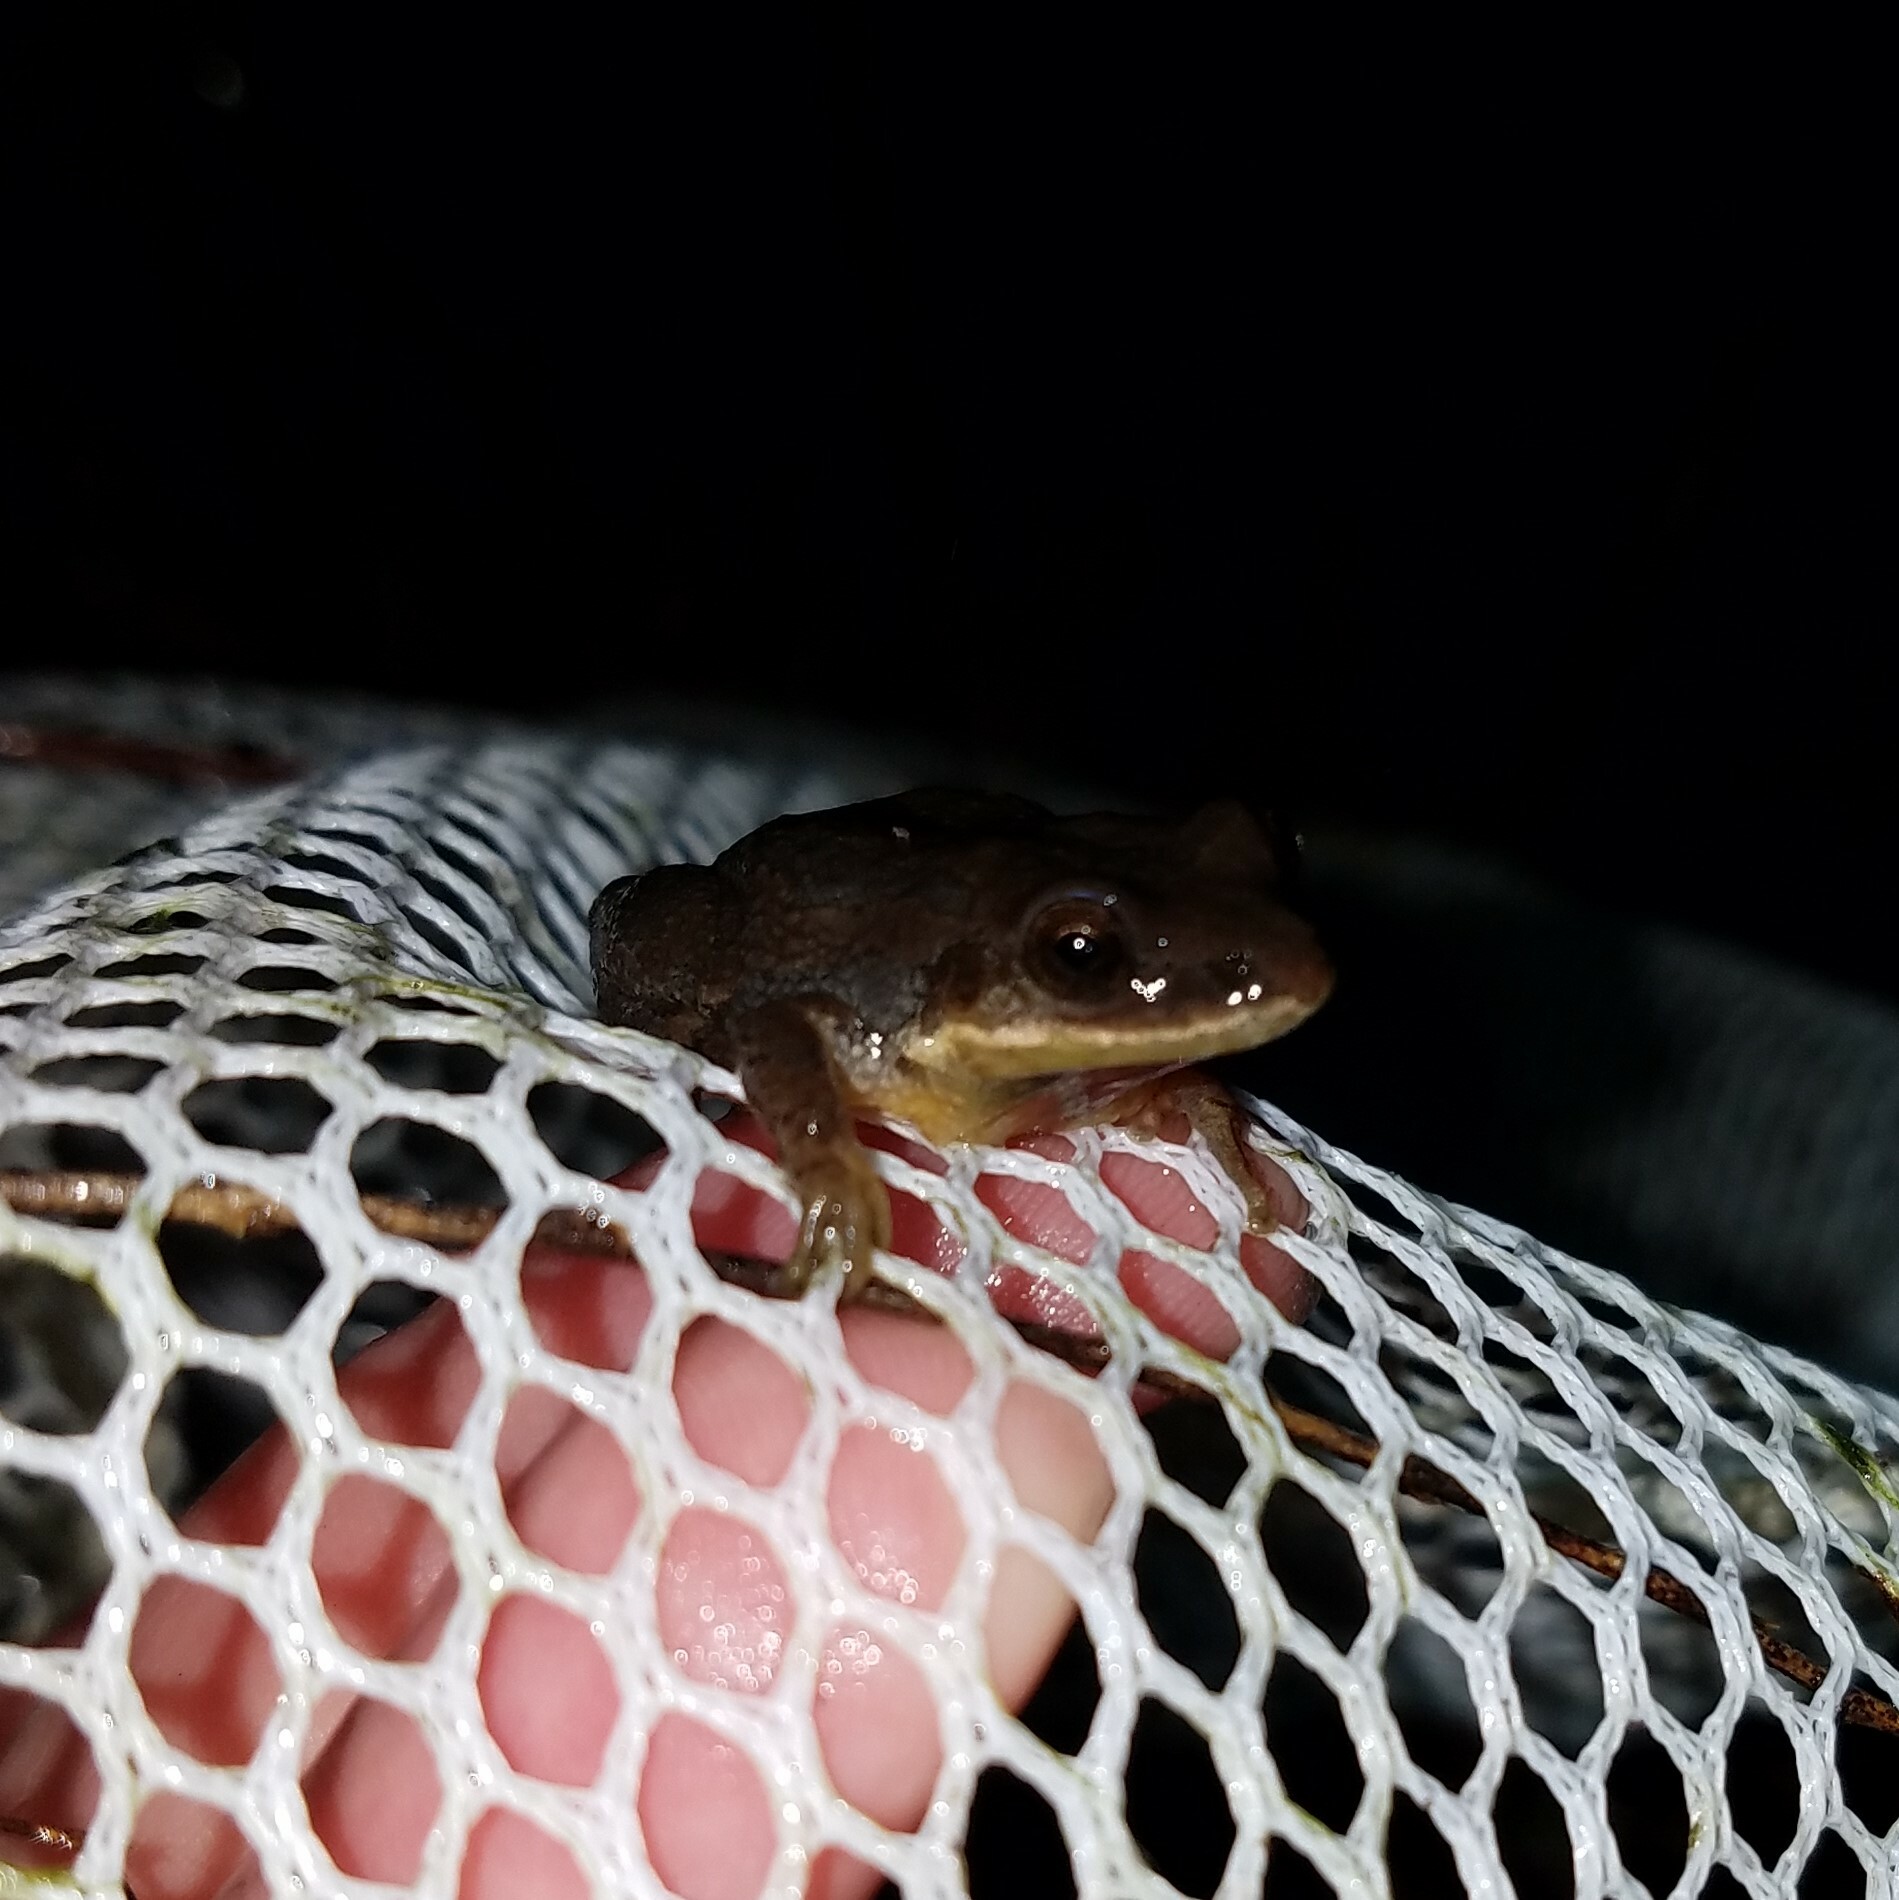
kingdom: Animalia
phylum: Chordata
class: Amphibia
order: Anura
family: Hylidae
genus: Pseudacris
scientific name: Pseudacris feriarum
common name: Upland chorus frog
